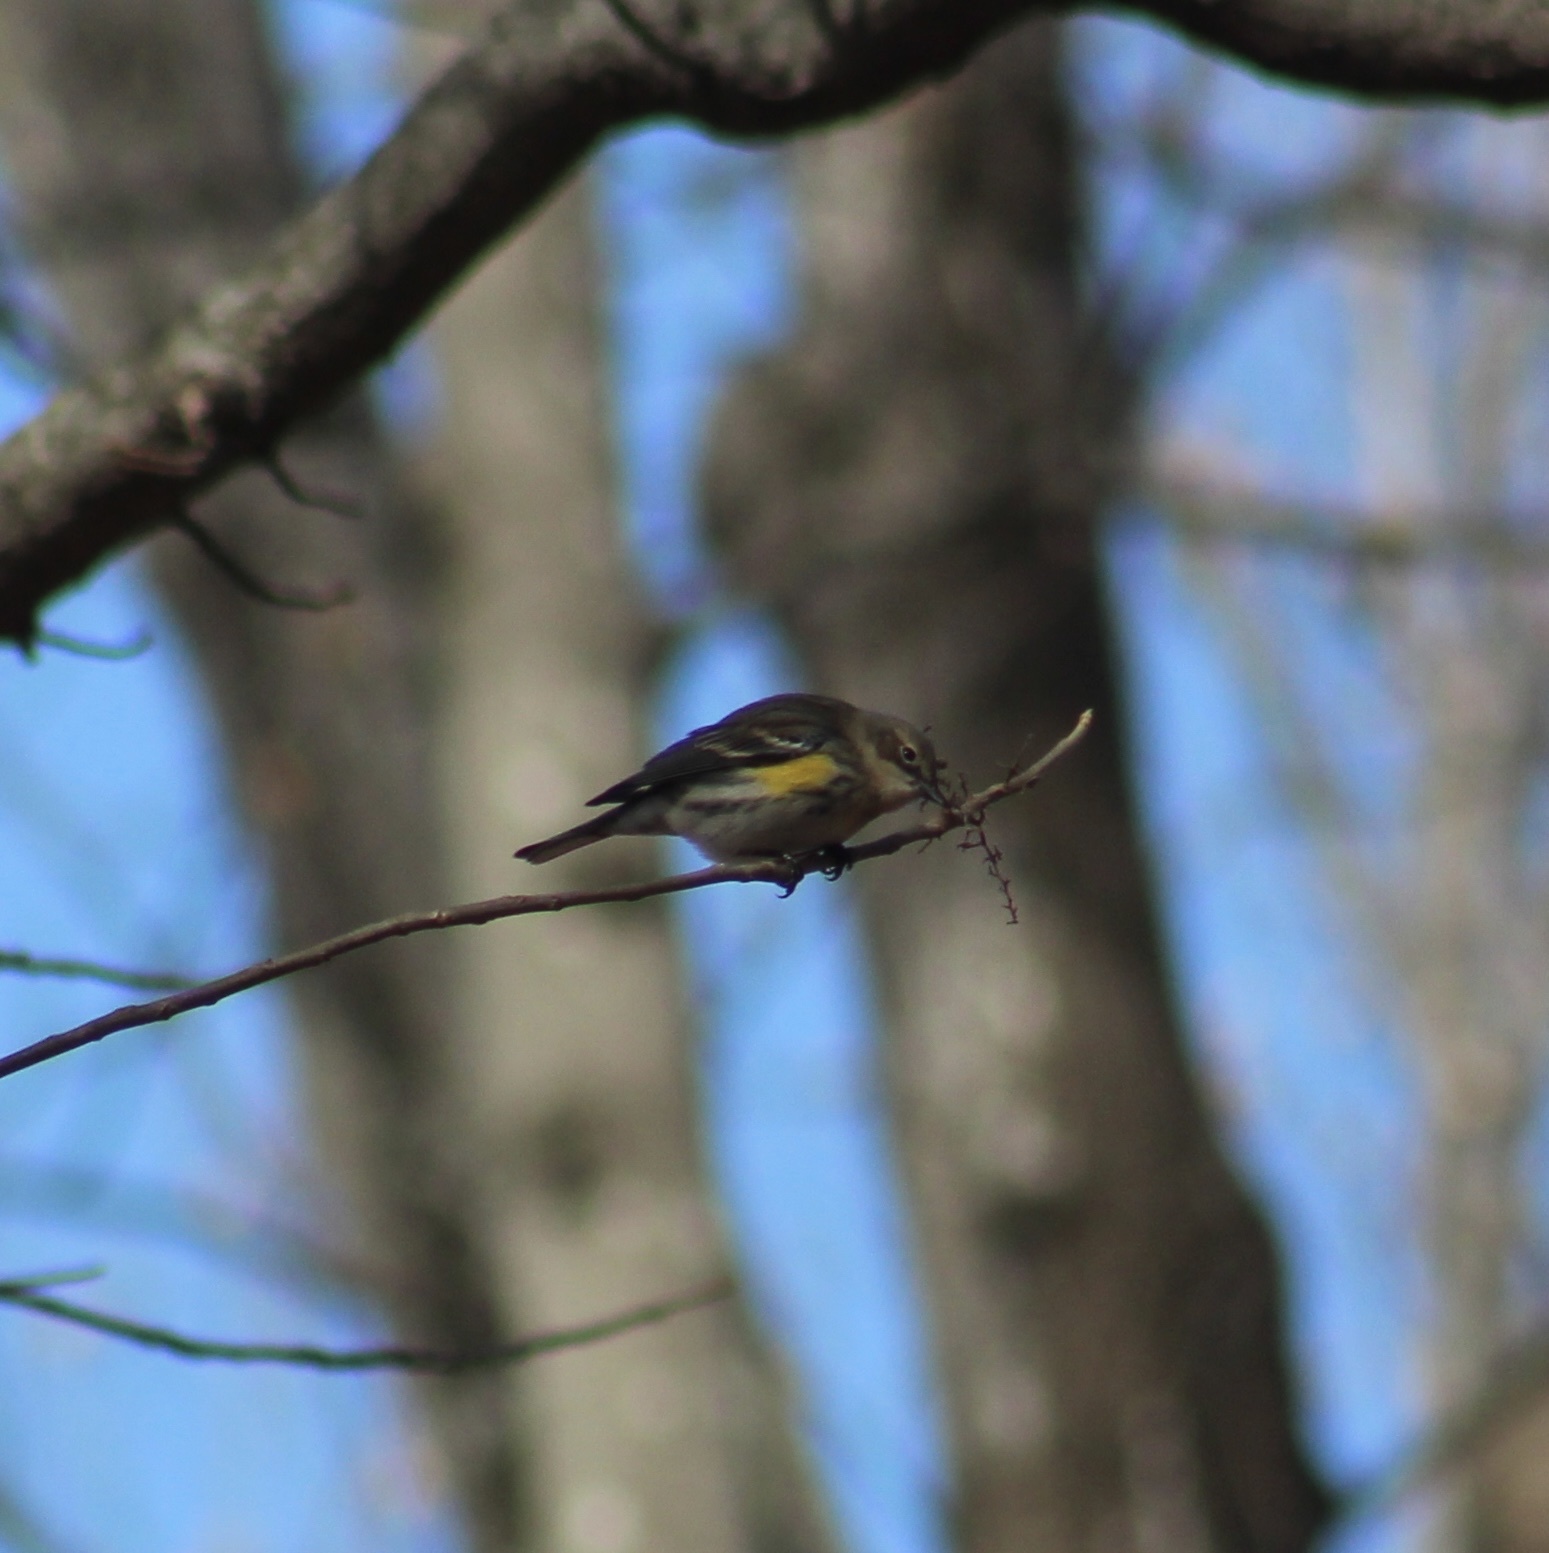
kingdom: Animalia
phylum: Chordata
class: Aves
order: Passeriformes
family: Parulidae
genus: Setophaga
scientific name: Setophaga coronata
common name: Myrtle warbler
